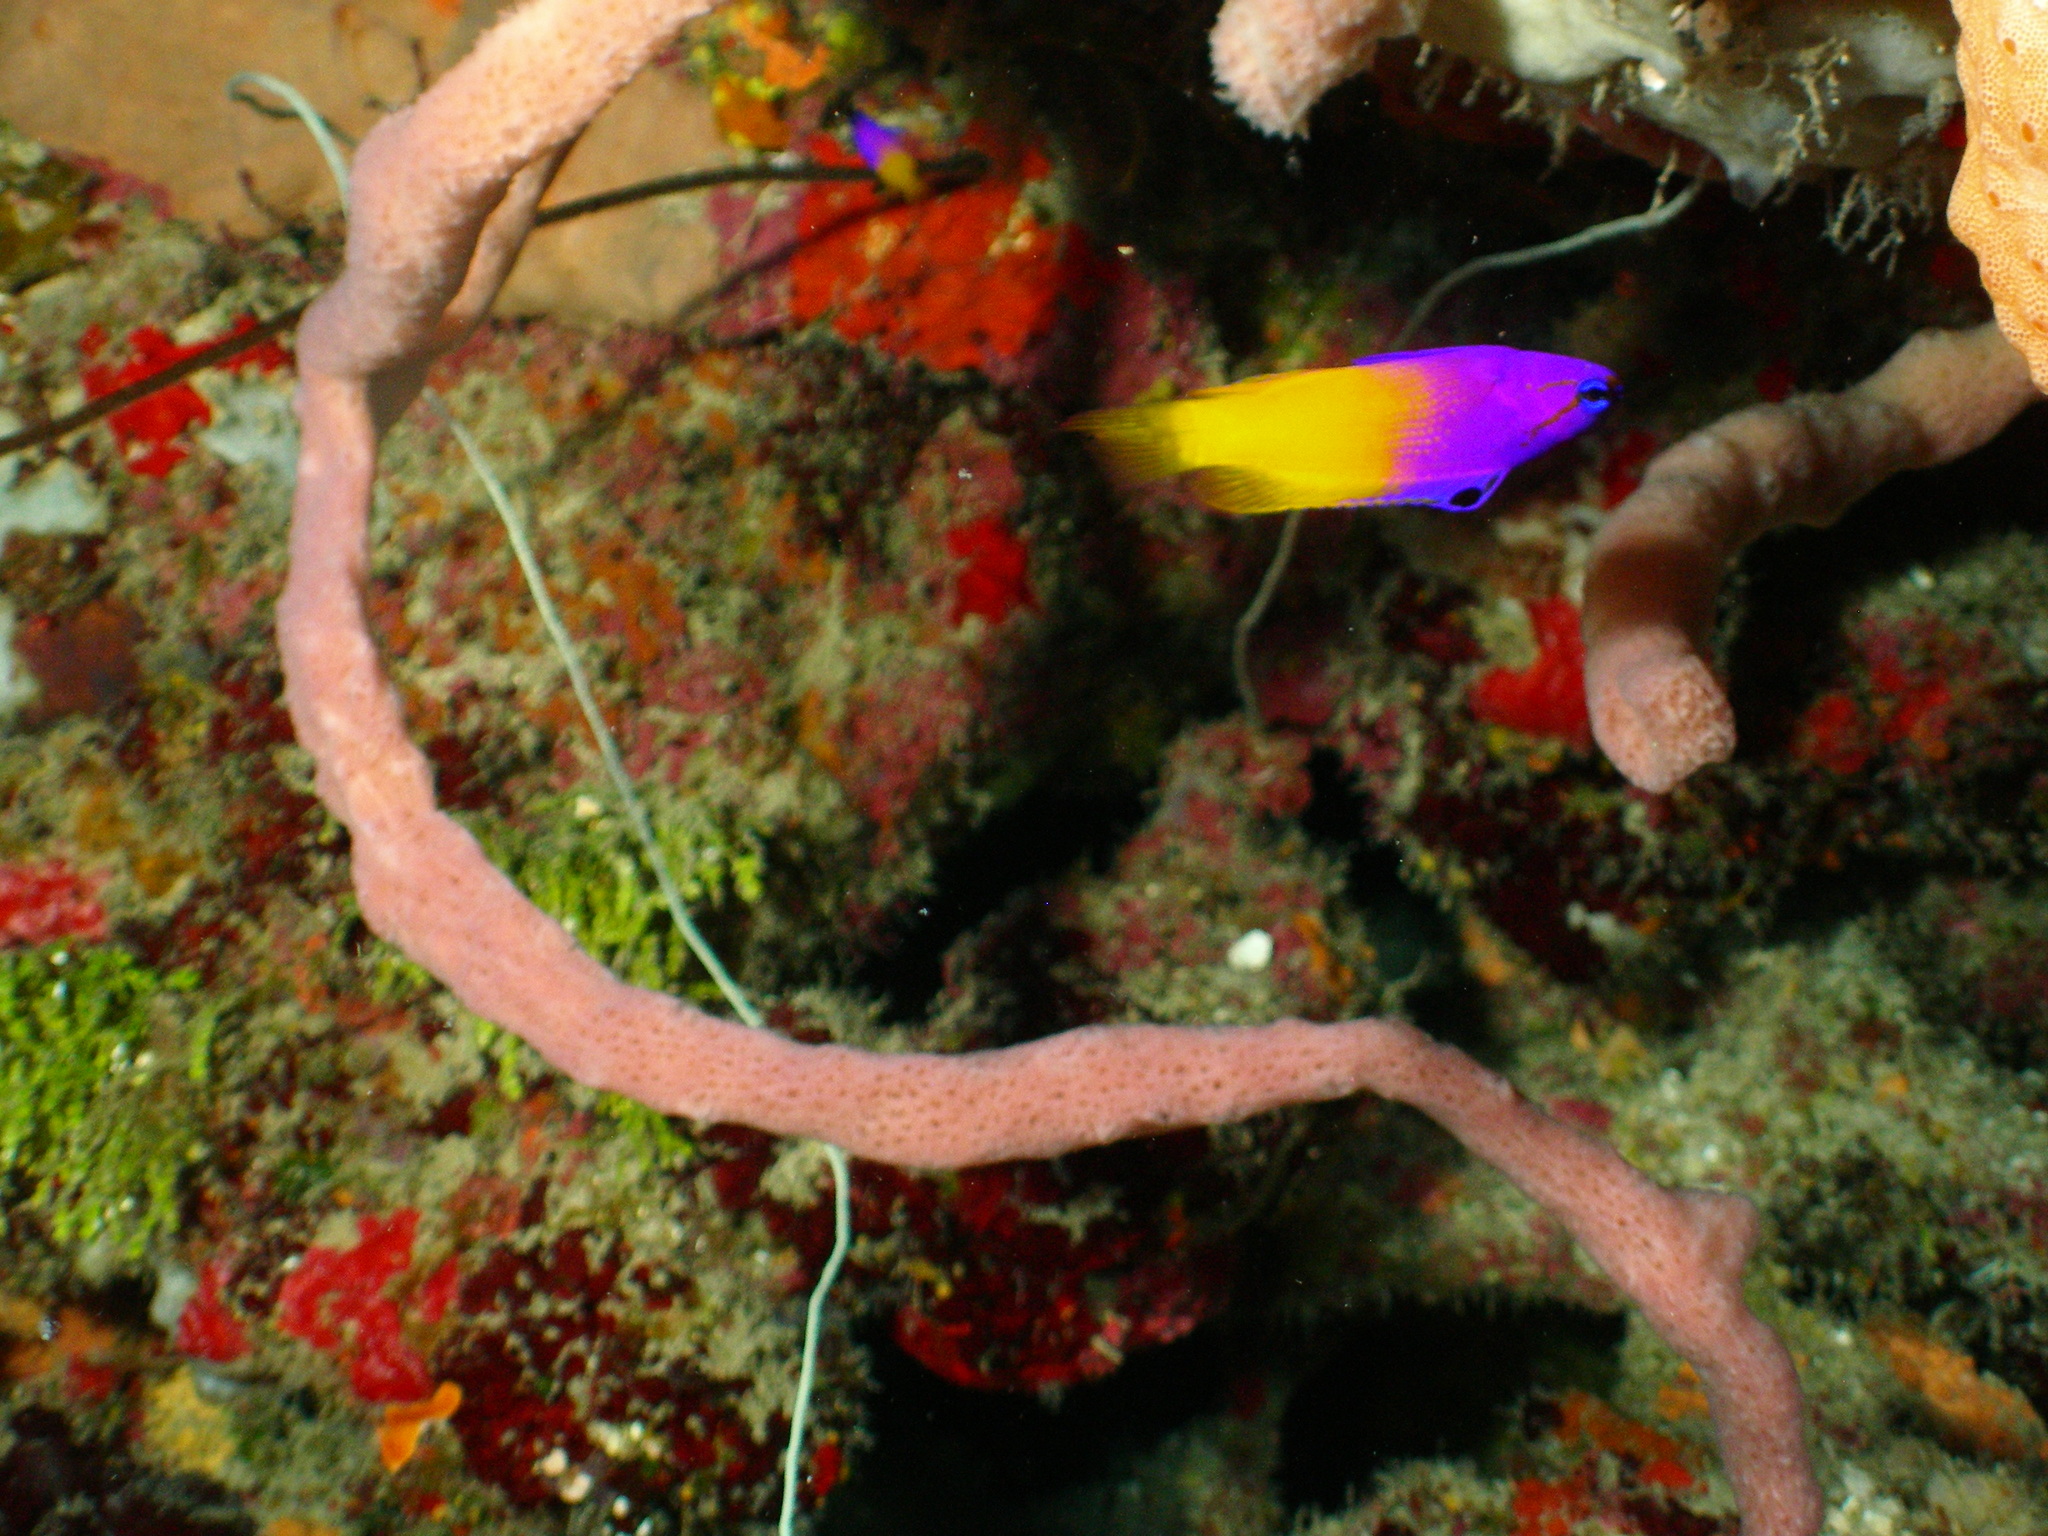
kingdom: Animalia
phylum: Chordata
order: Perciformes
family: Grammatidae
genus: Gramma
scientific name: Gramma loreto
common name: Fairy basslet
